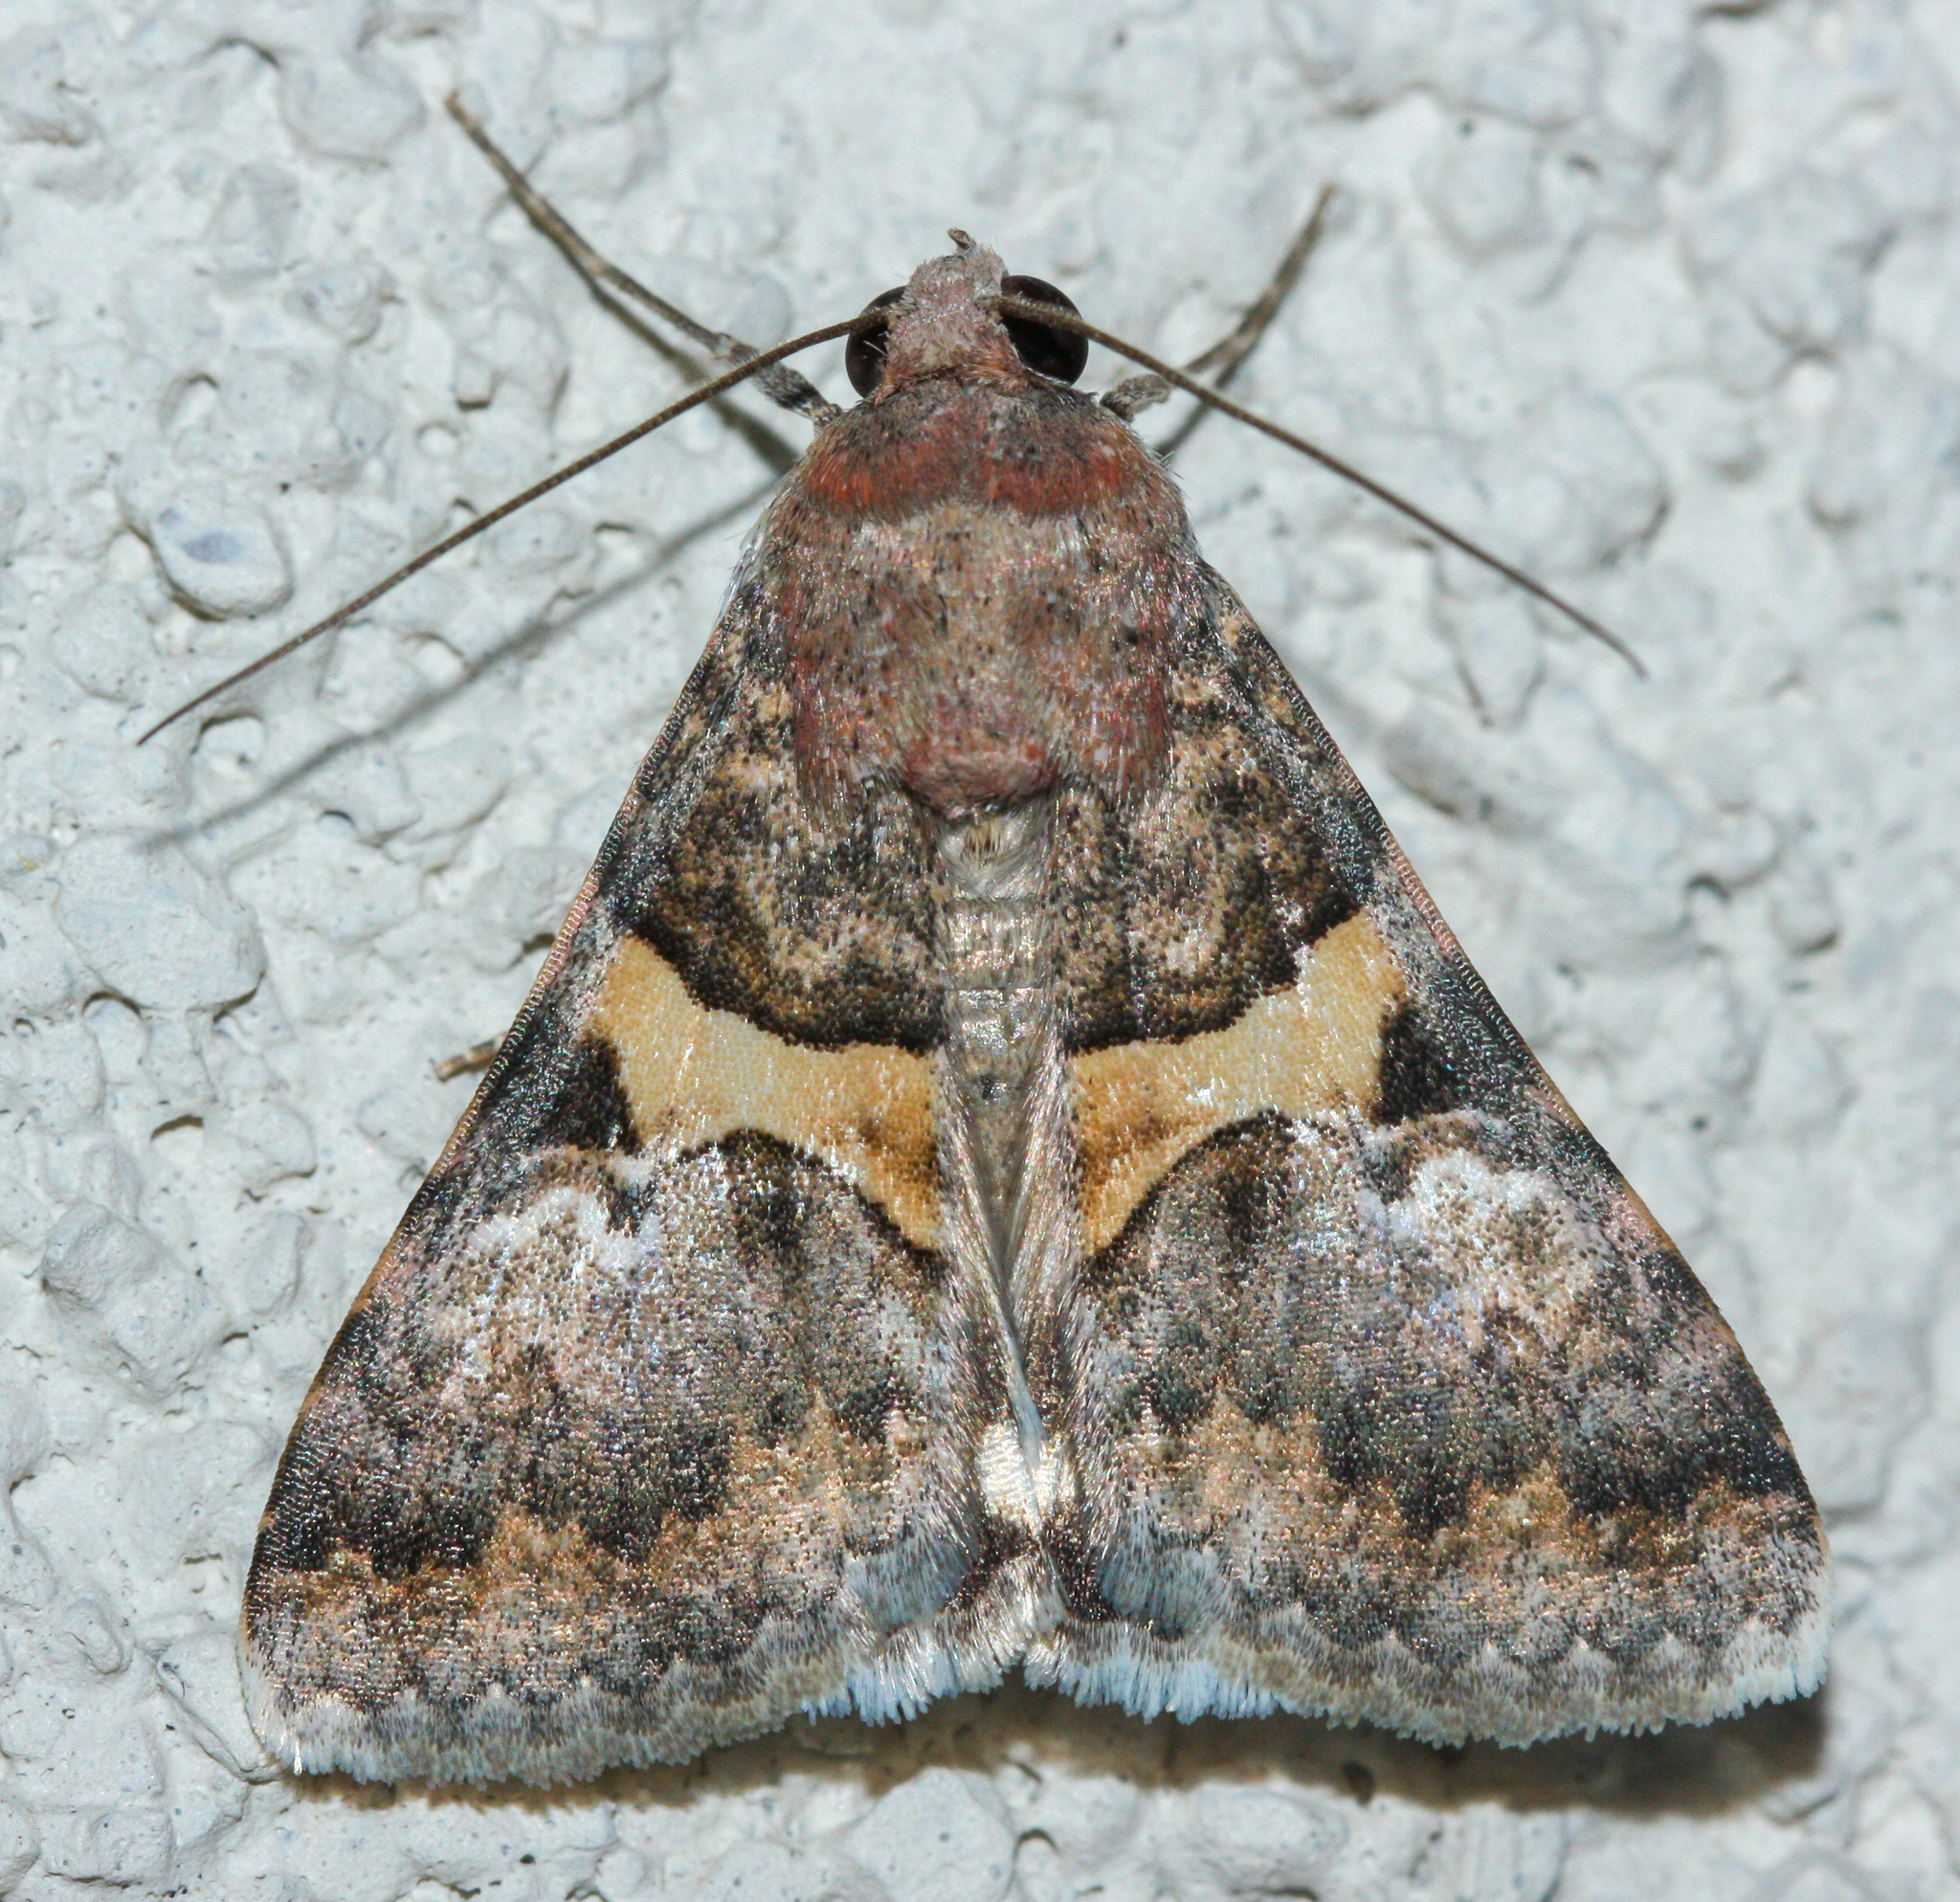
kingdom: Animalia
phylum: Arthropoda
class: Insecta
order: Lepidoptera
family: Erebidae
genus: Melipotis
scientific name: Melipotis jucunda
